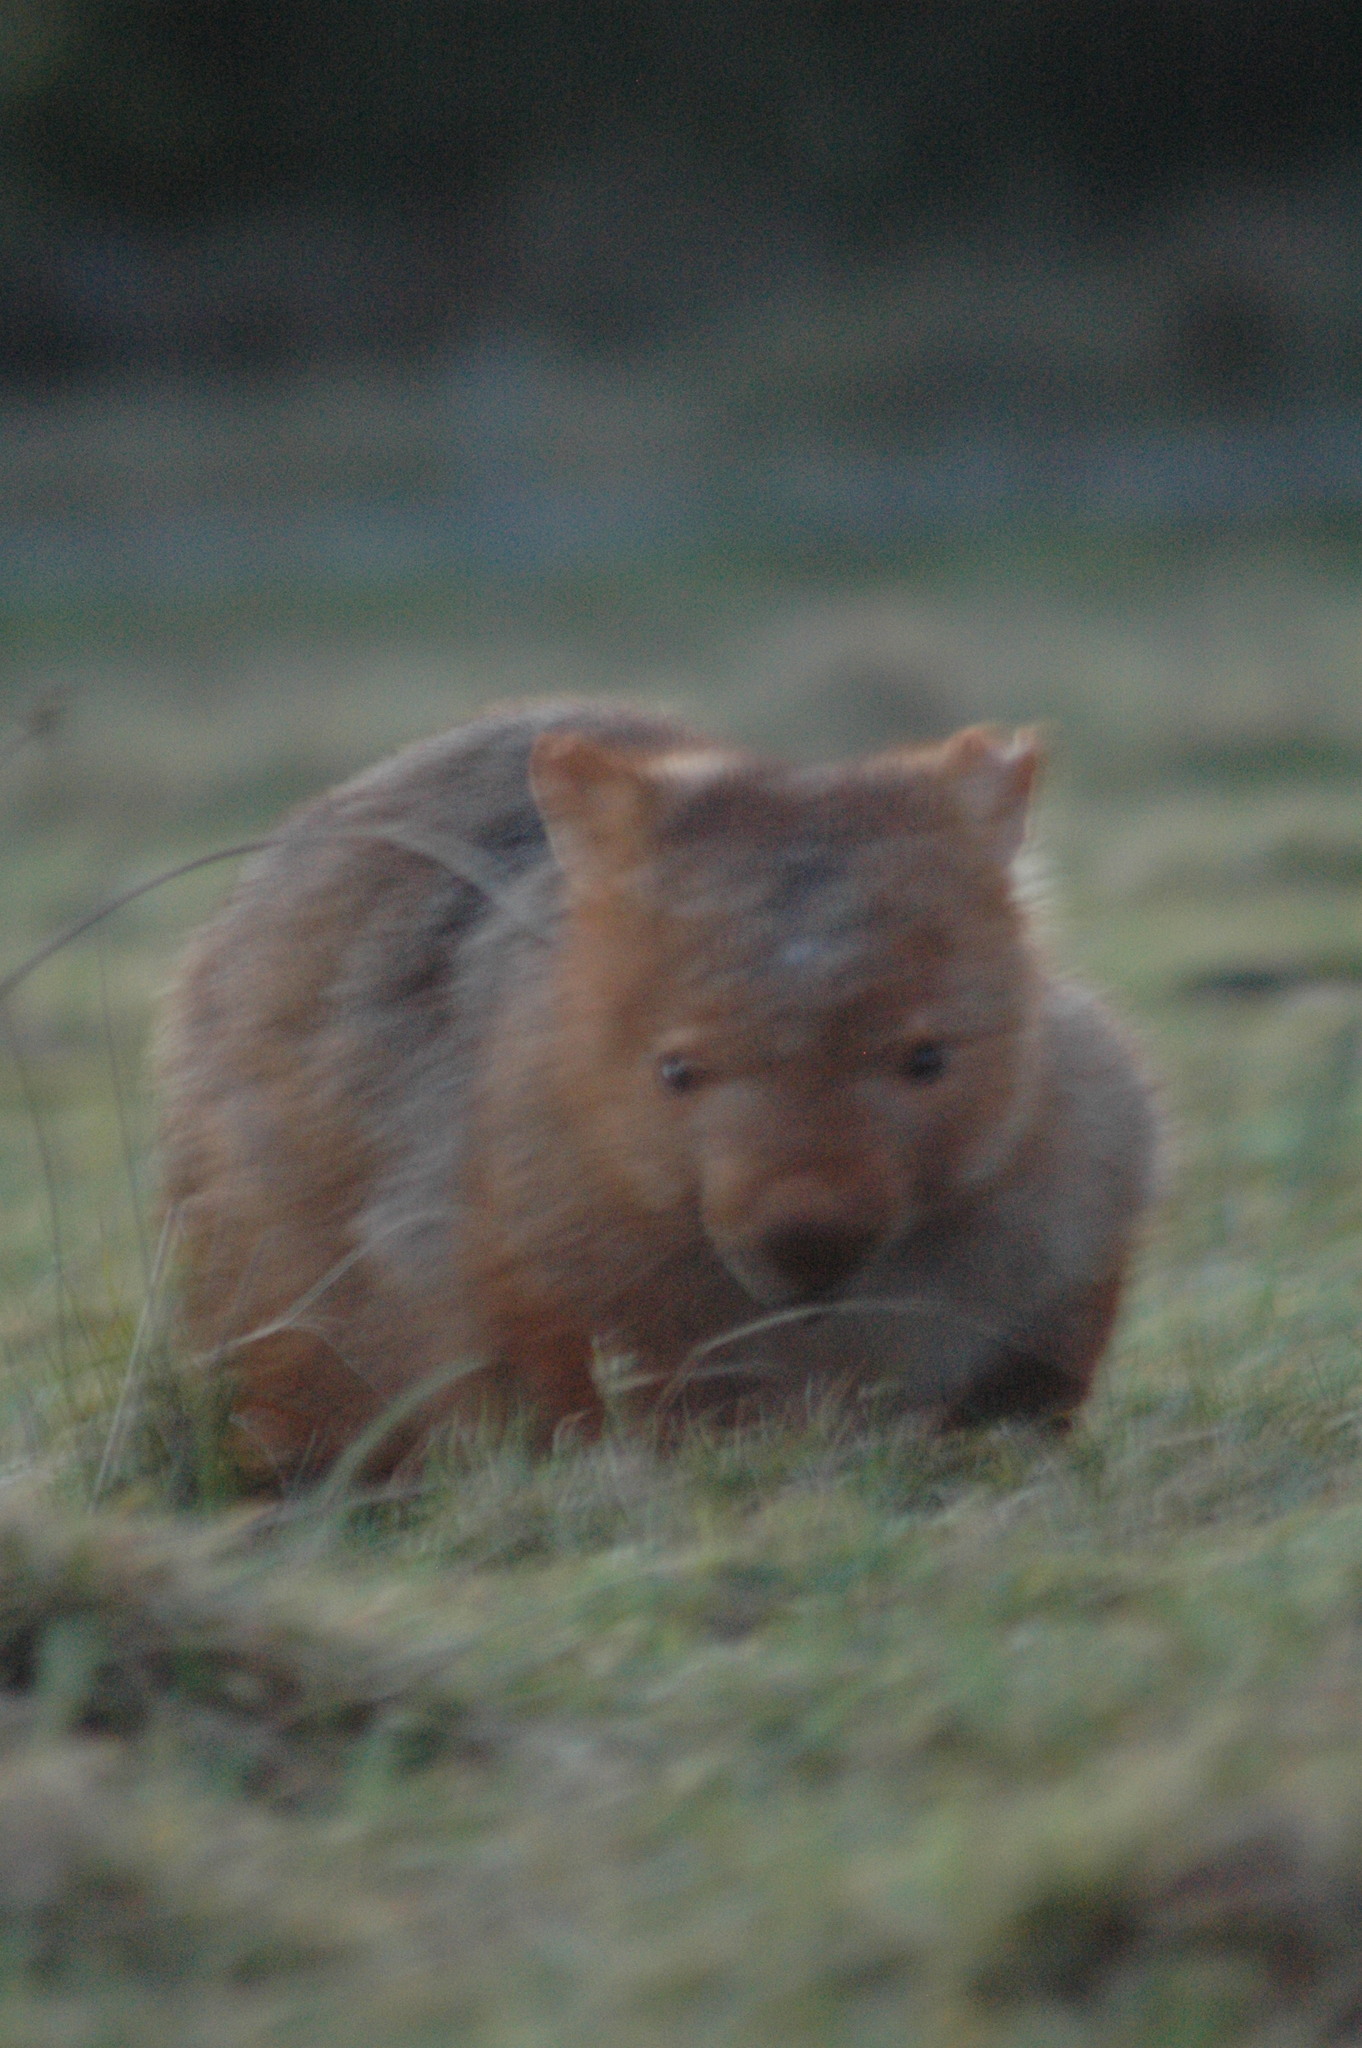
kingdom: Animalia
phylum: Chordata
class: Mammalia
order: Diprotodontia
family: Vombatidae
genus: Vombatus
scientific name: Vombatus ursinus
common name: Common wombat
